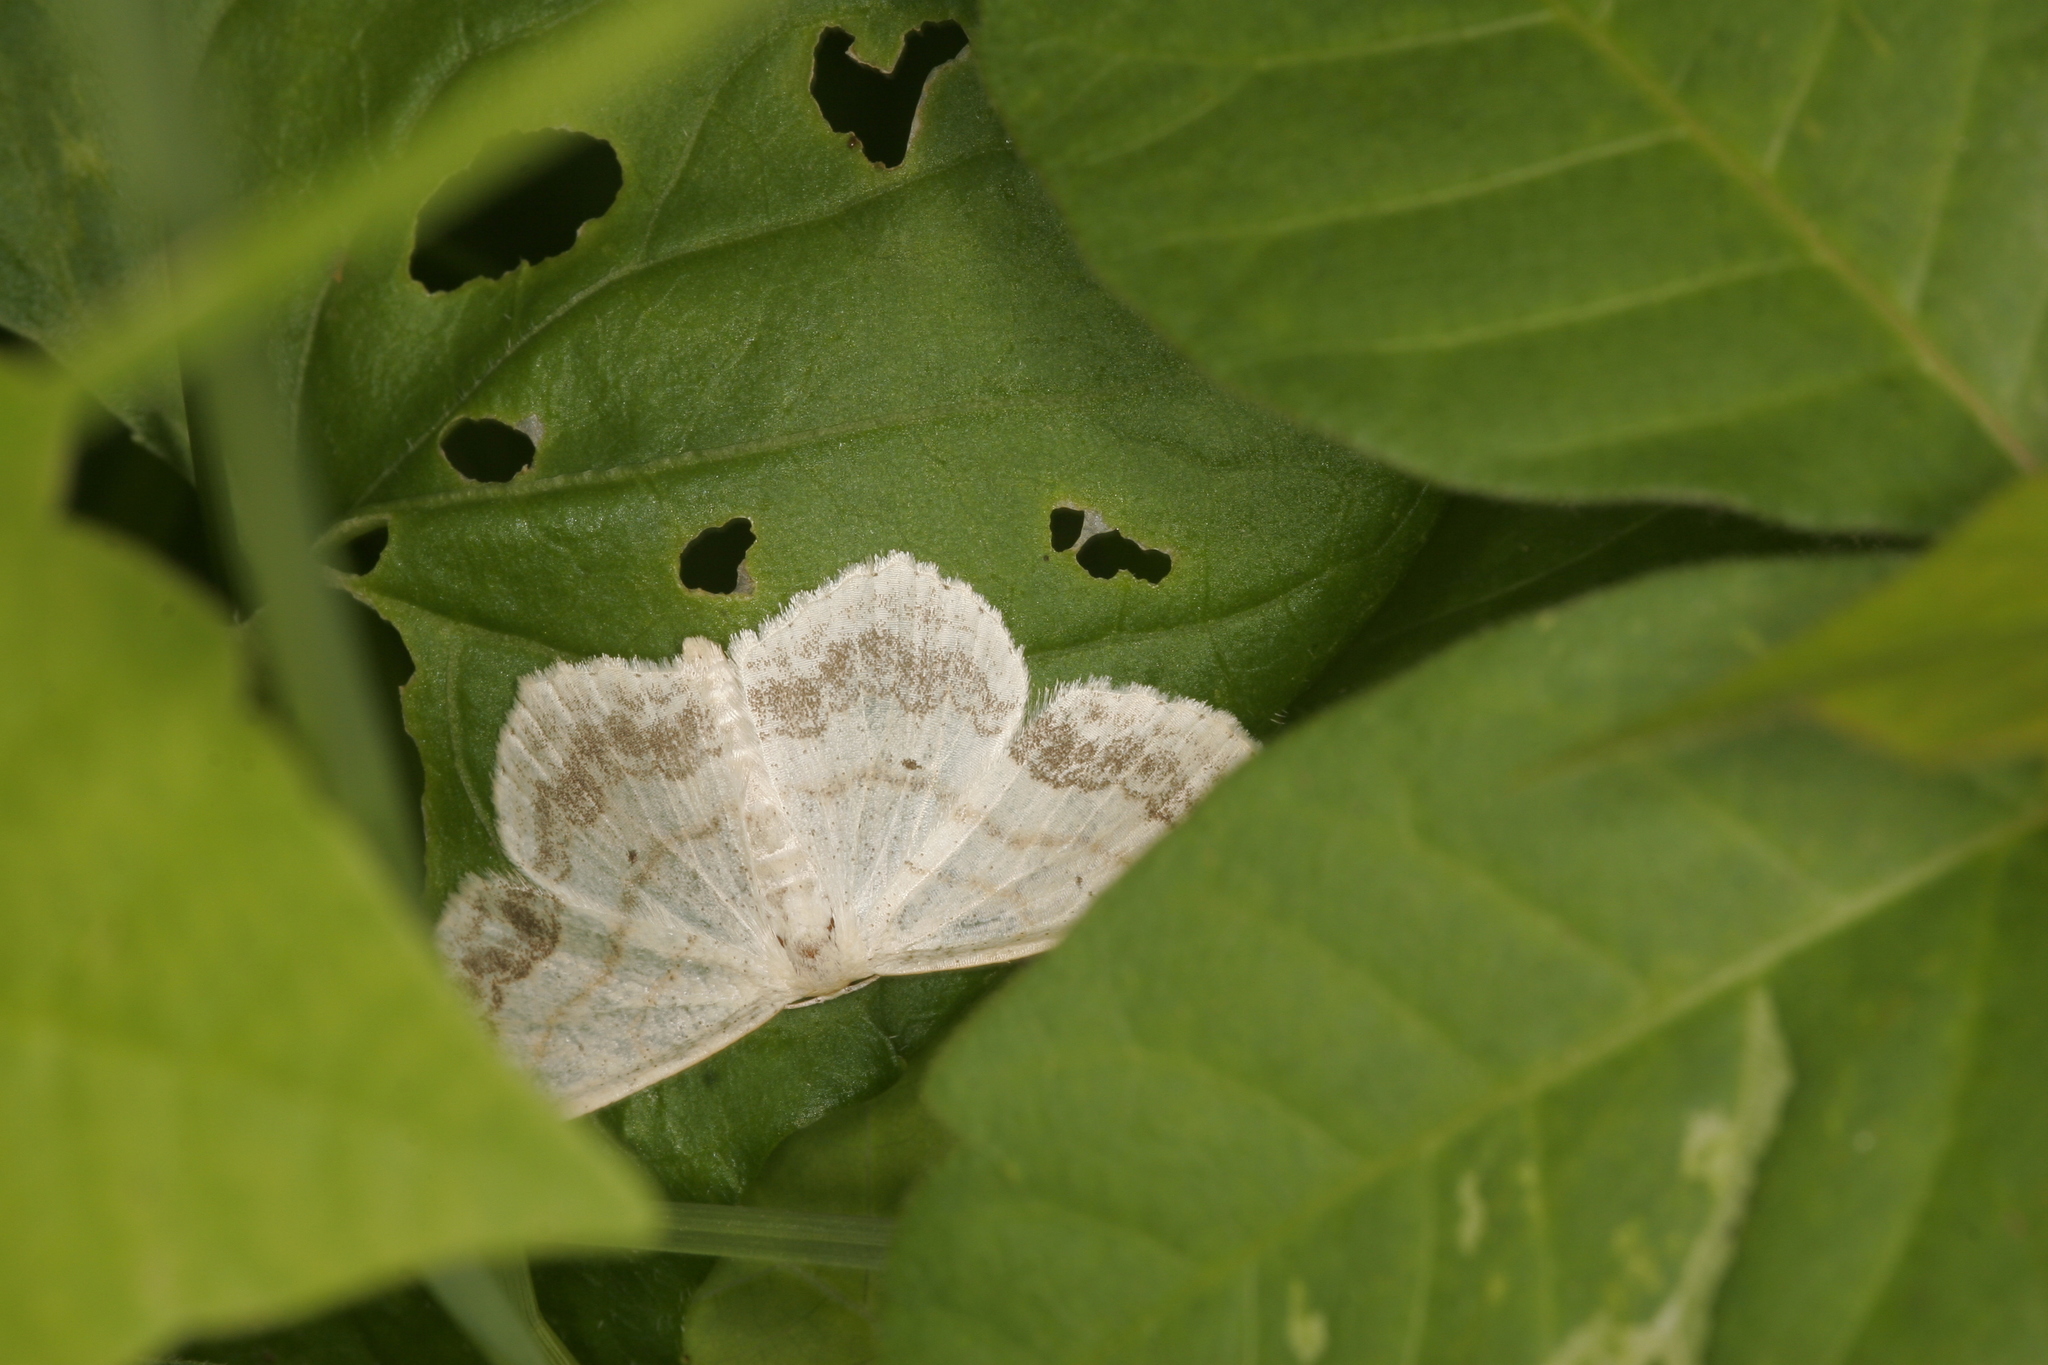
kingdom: Animalia
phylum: Arthropoda
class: Insecta
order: Lepidoptera
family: Geometridae
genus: Scopula
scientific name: Scopula limboundata
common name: Large lace border
